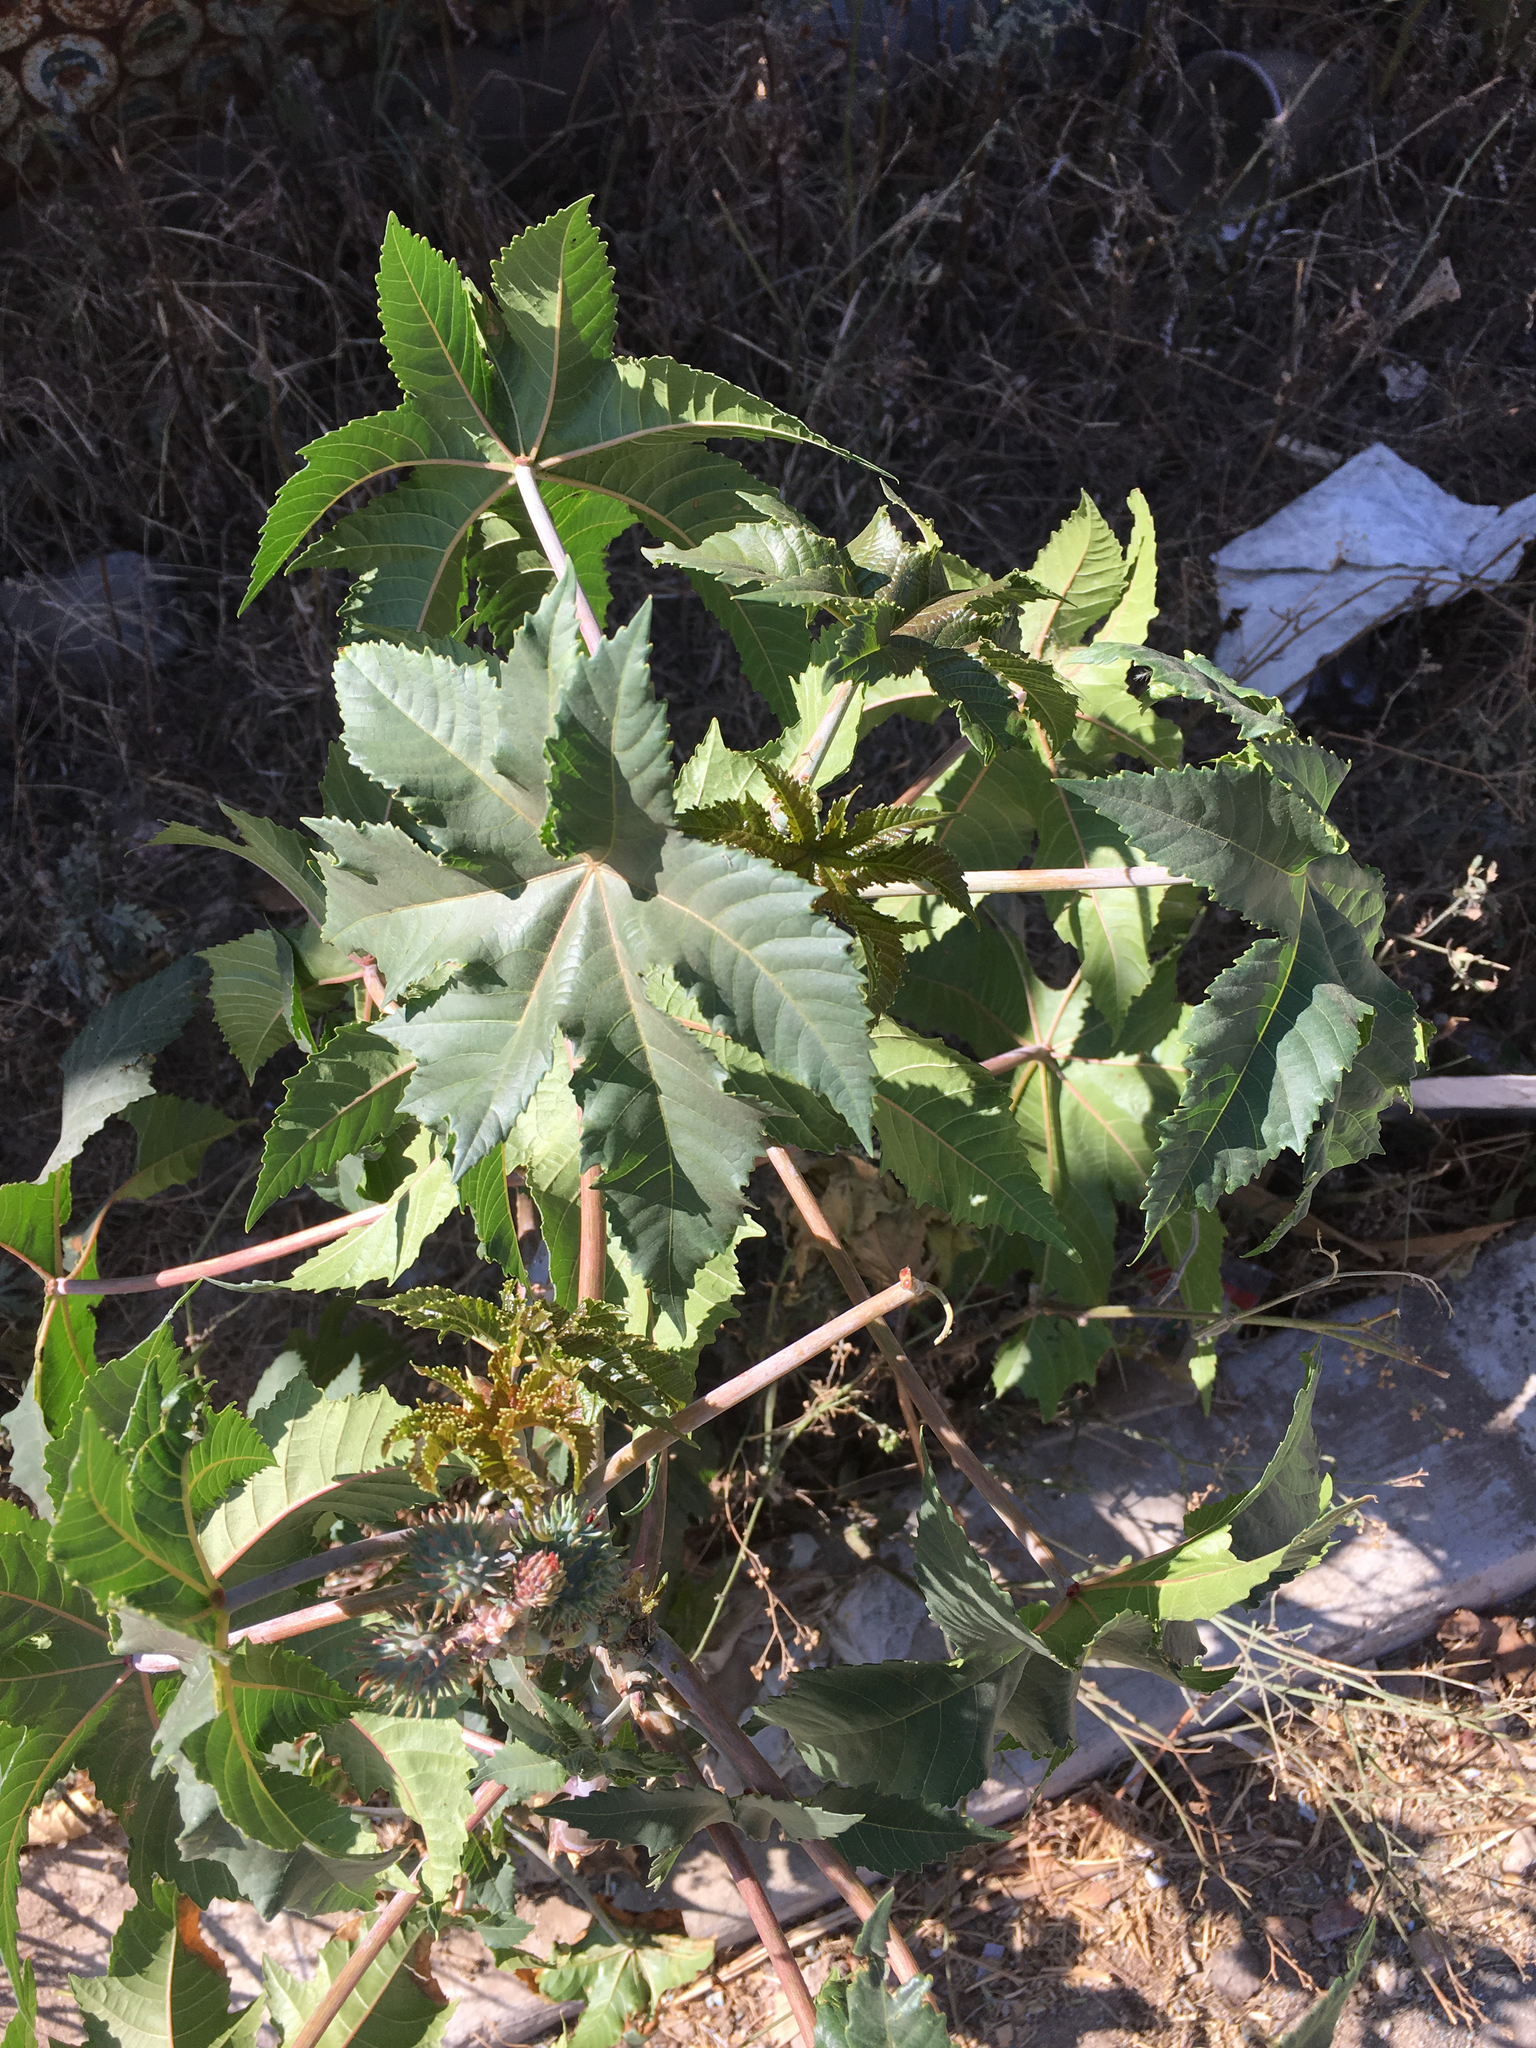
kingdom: Plantae
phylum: Tracheophyta
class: Magnoliopsida
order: Malpighiales
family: Euphorbiaceae
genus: Ricinus
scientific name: Ricinus communis
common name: Castor-oil-plant
